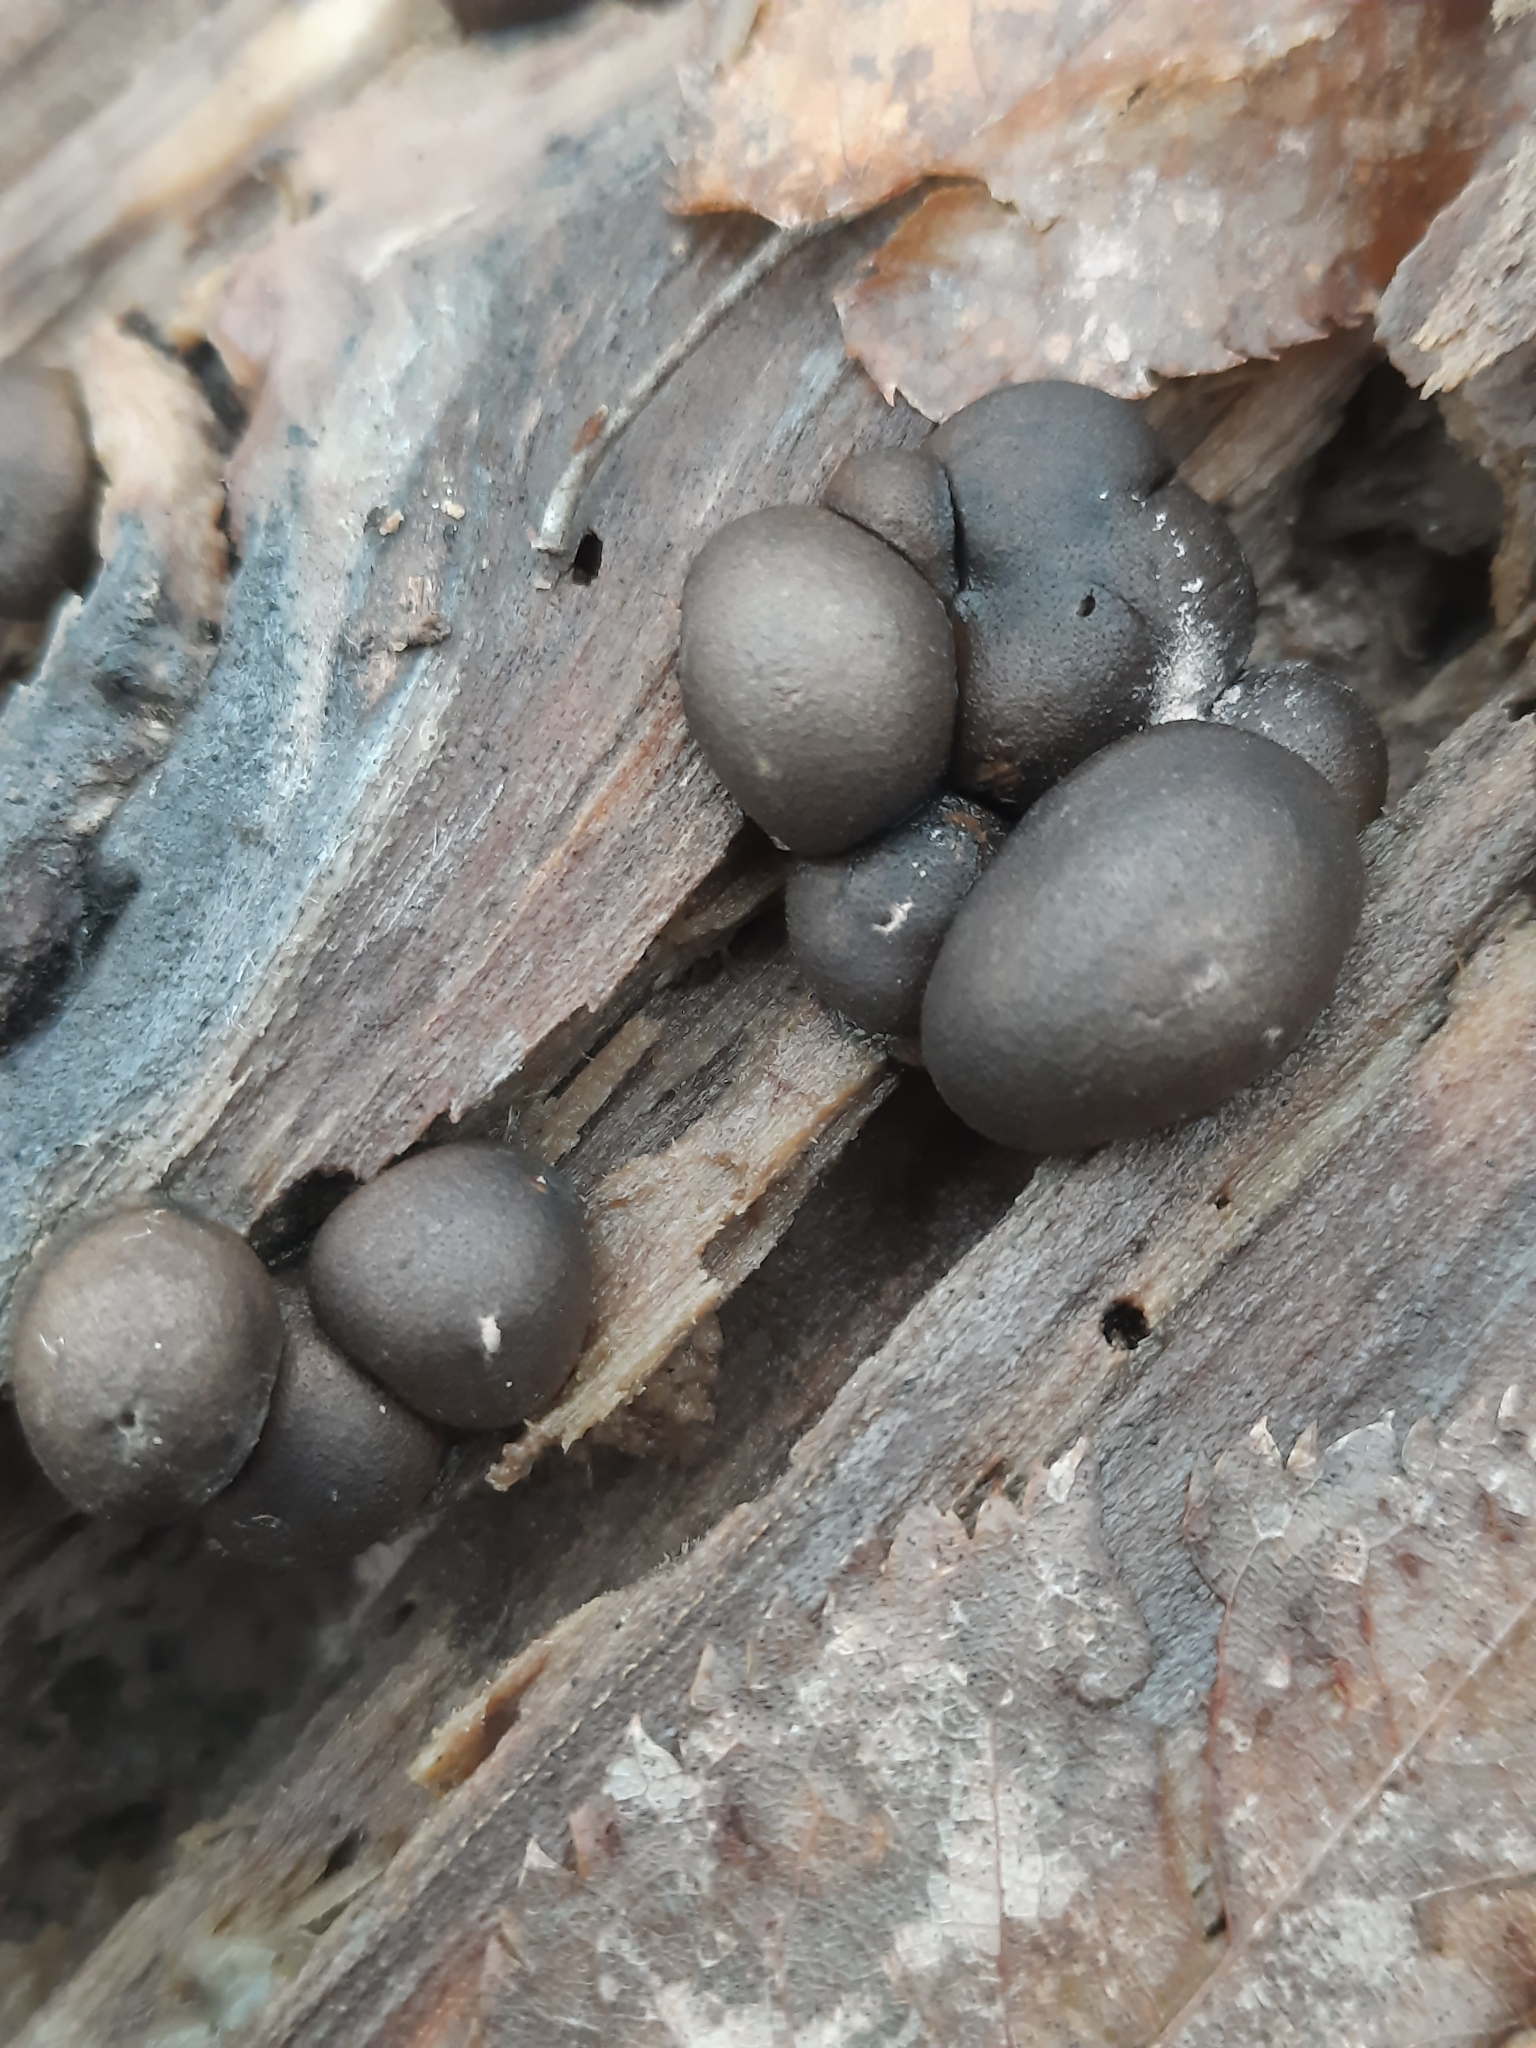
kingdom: Protozoa
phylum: Mycetozoa
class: Myxomycetes
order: Cribrariales
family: Tubiferaceae
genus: Lycogala
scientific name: Lycogala epidendrum
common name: Wolf's milk
